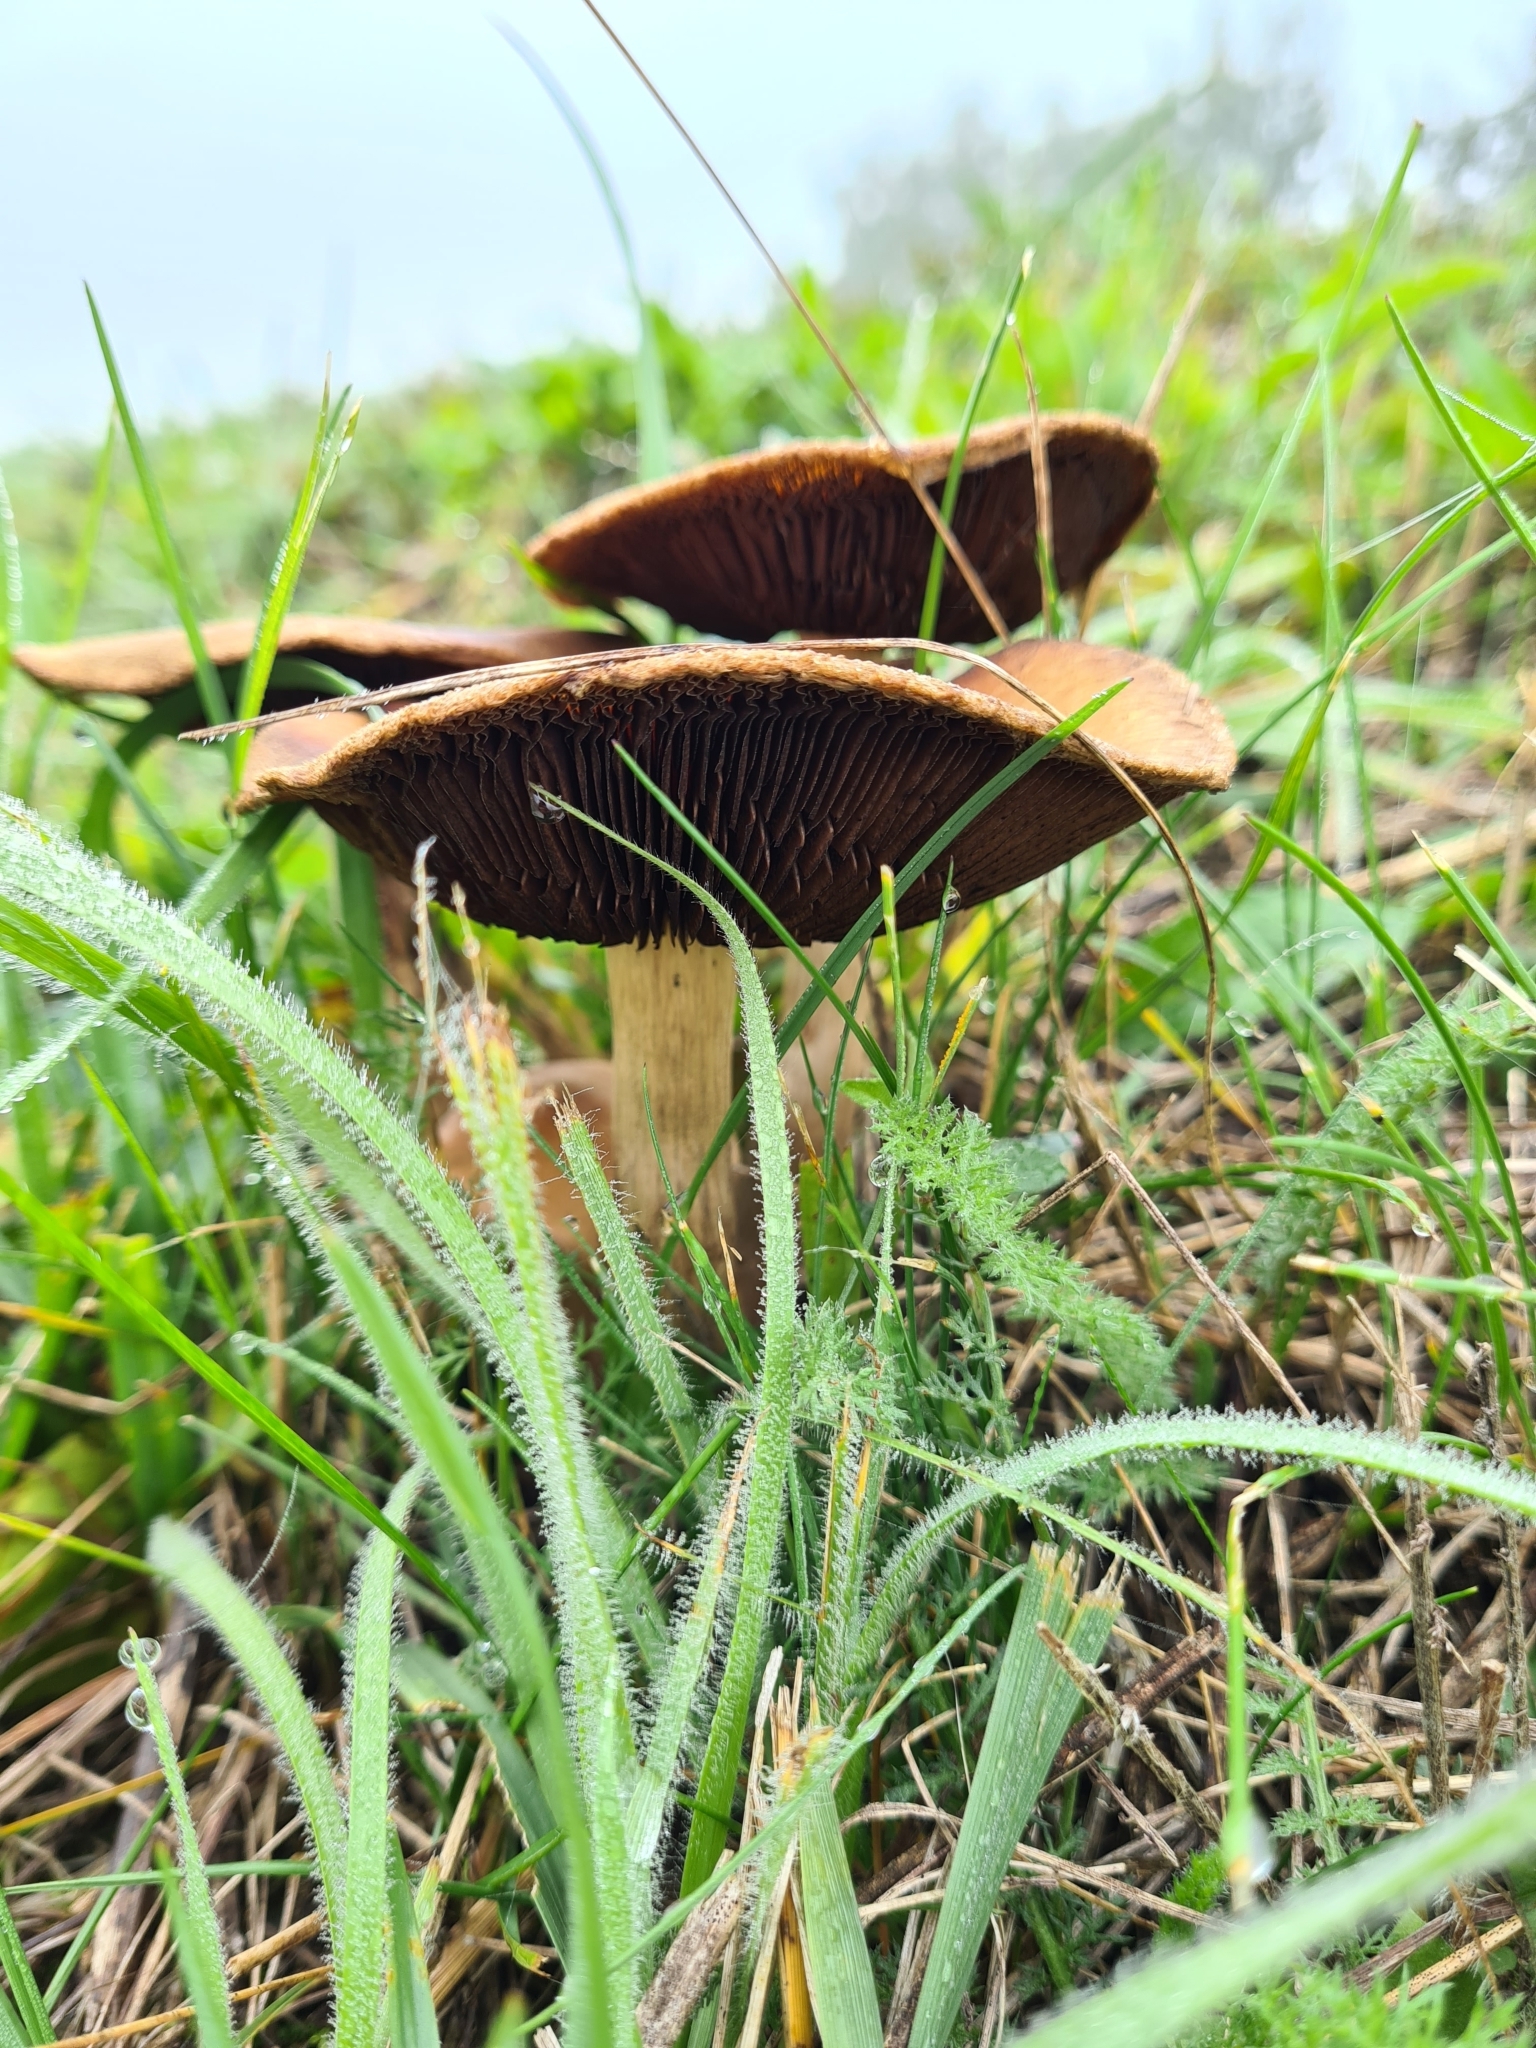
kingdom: Fungi
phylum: Basidiomycota
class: Agaricomycetes
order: Agaricales
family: Psathyrellaceae
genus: Lacrymaria
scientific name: Lacrymaria lacrymabunda
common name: Weeping widow
